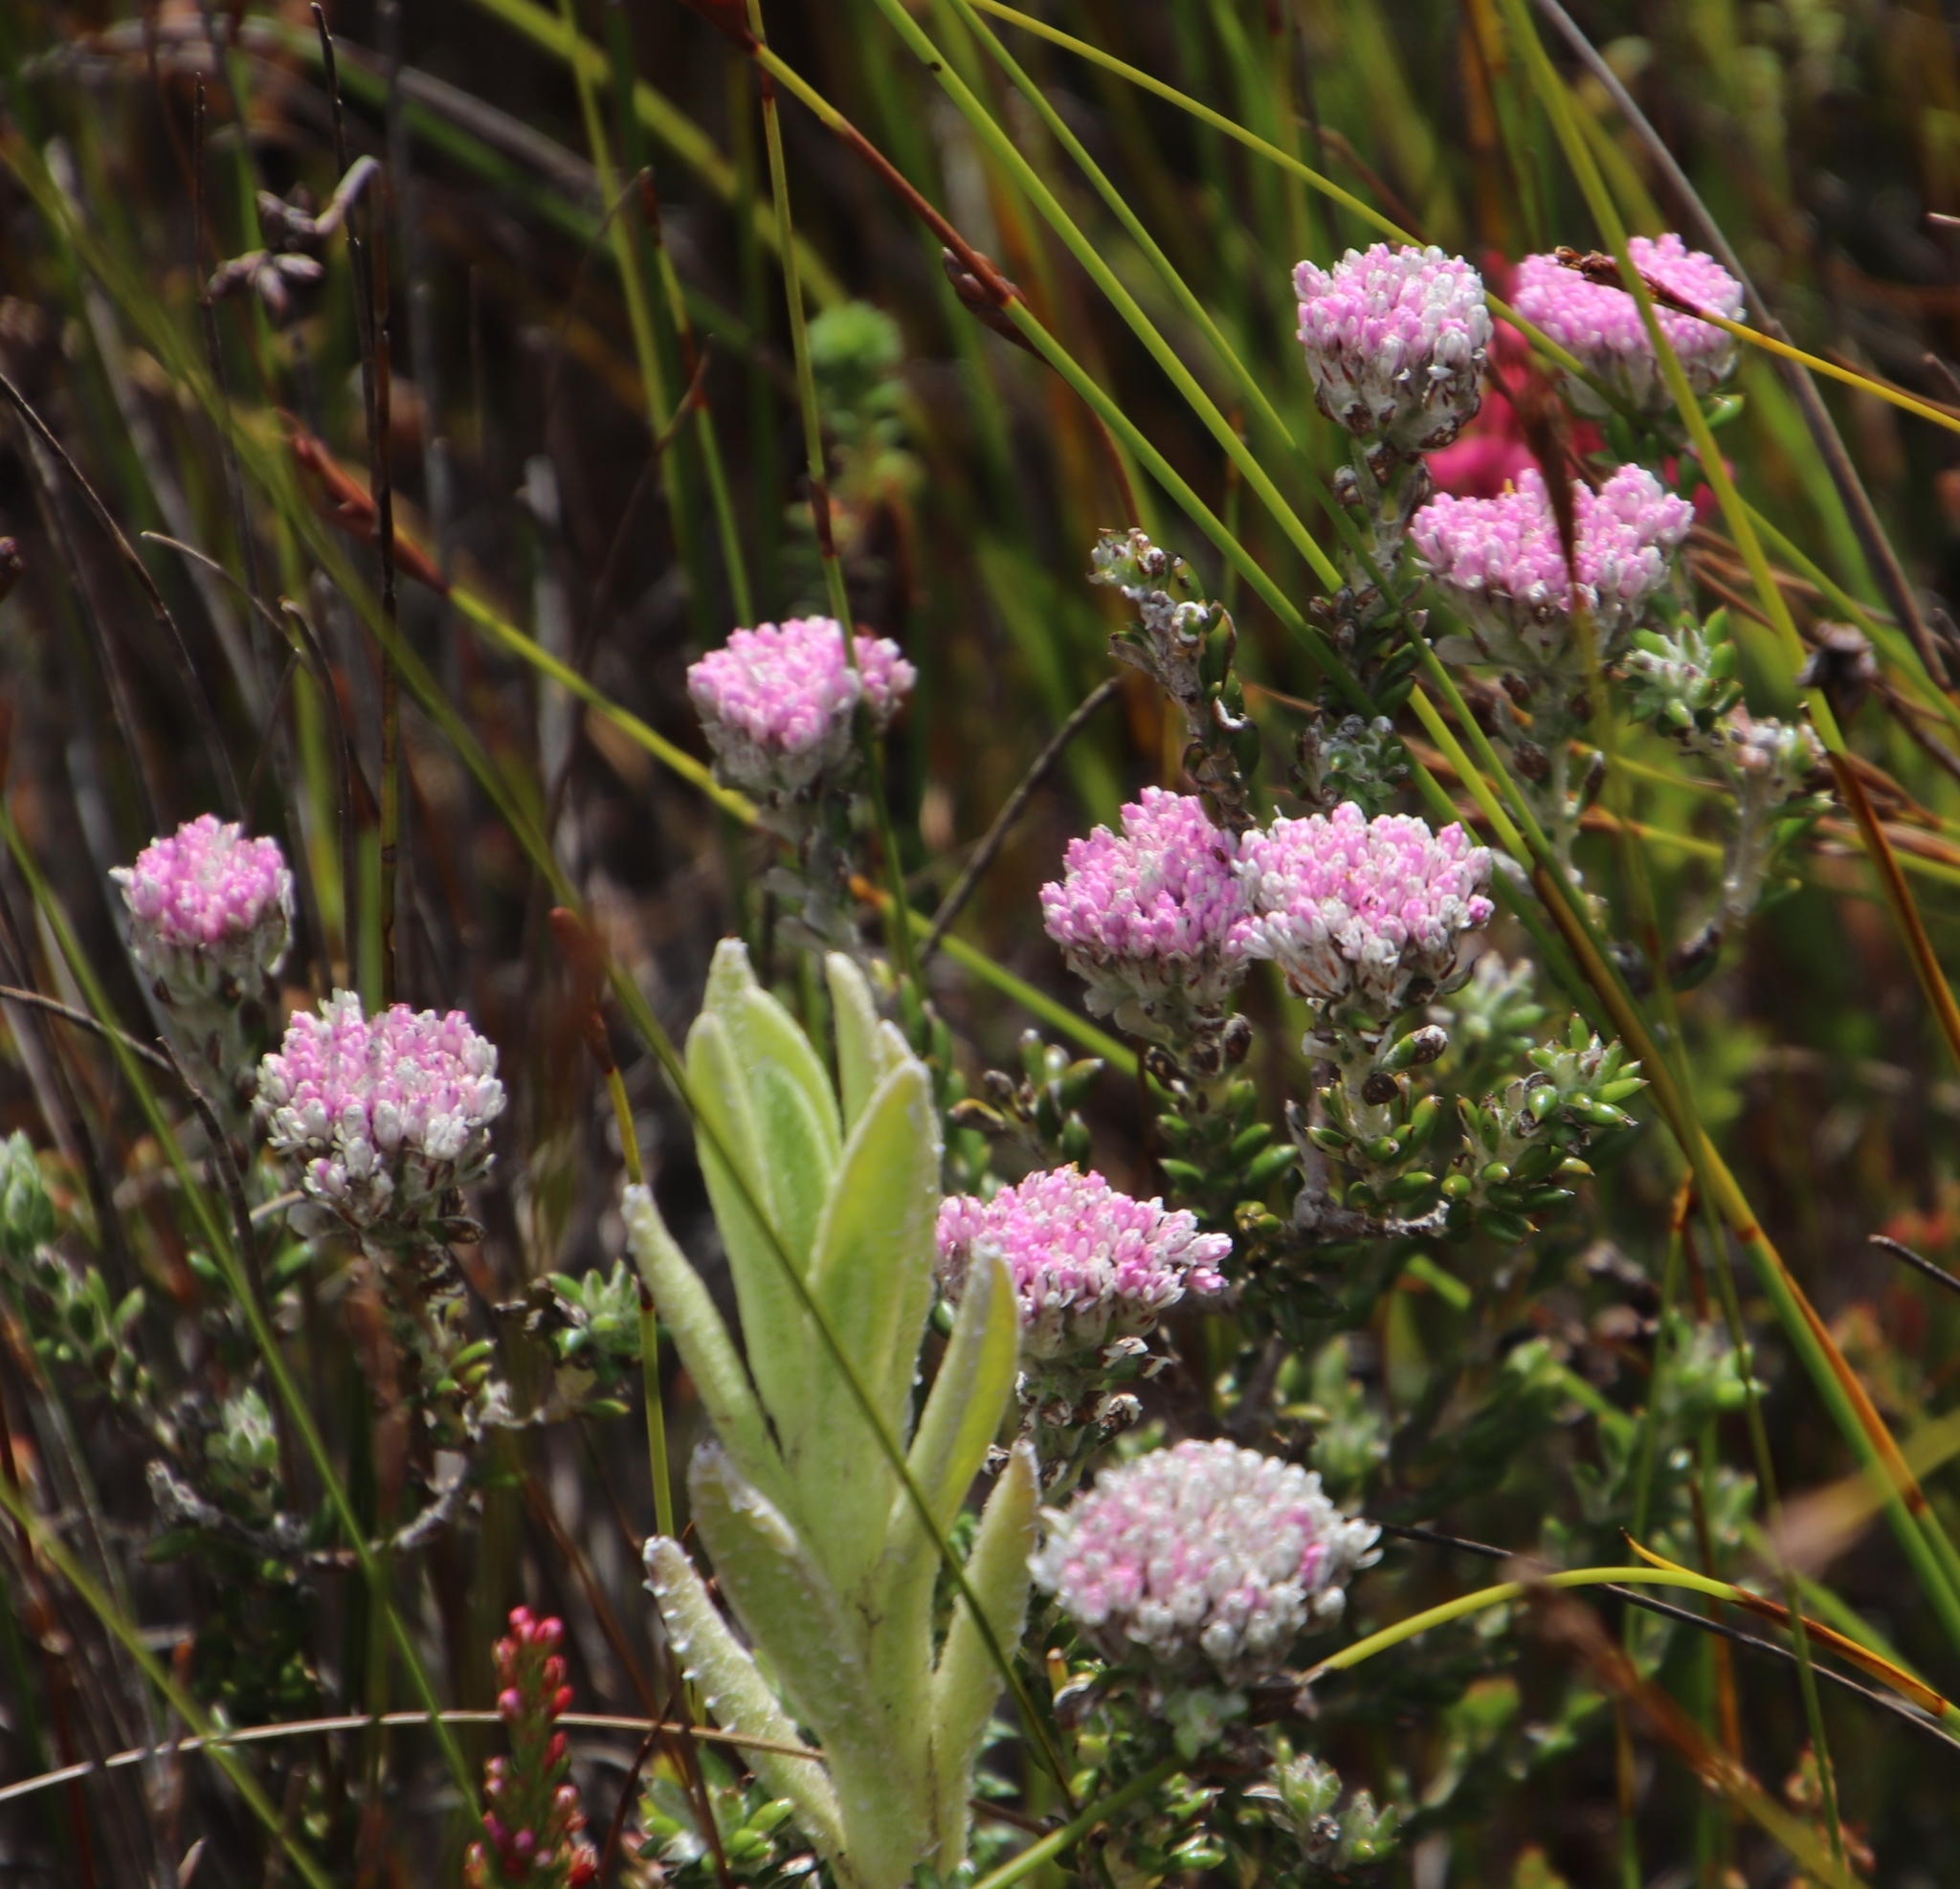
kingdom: Plantae
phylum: Tracheophyta
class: Magnoliopsida
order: Asterales
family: Asteraceae
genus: Metalasia
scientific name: Metalasia cymbifolia
